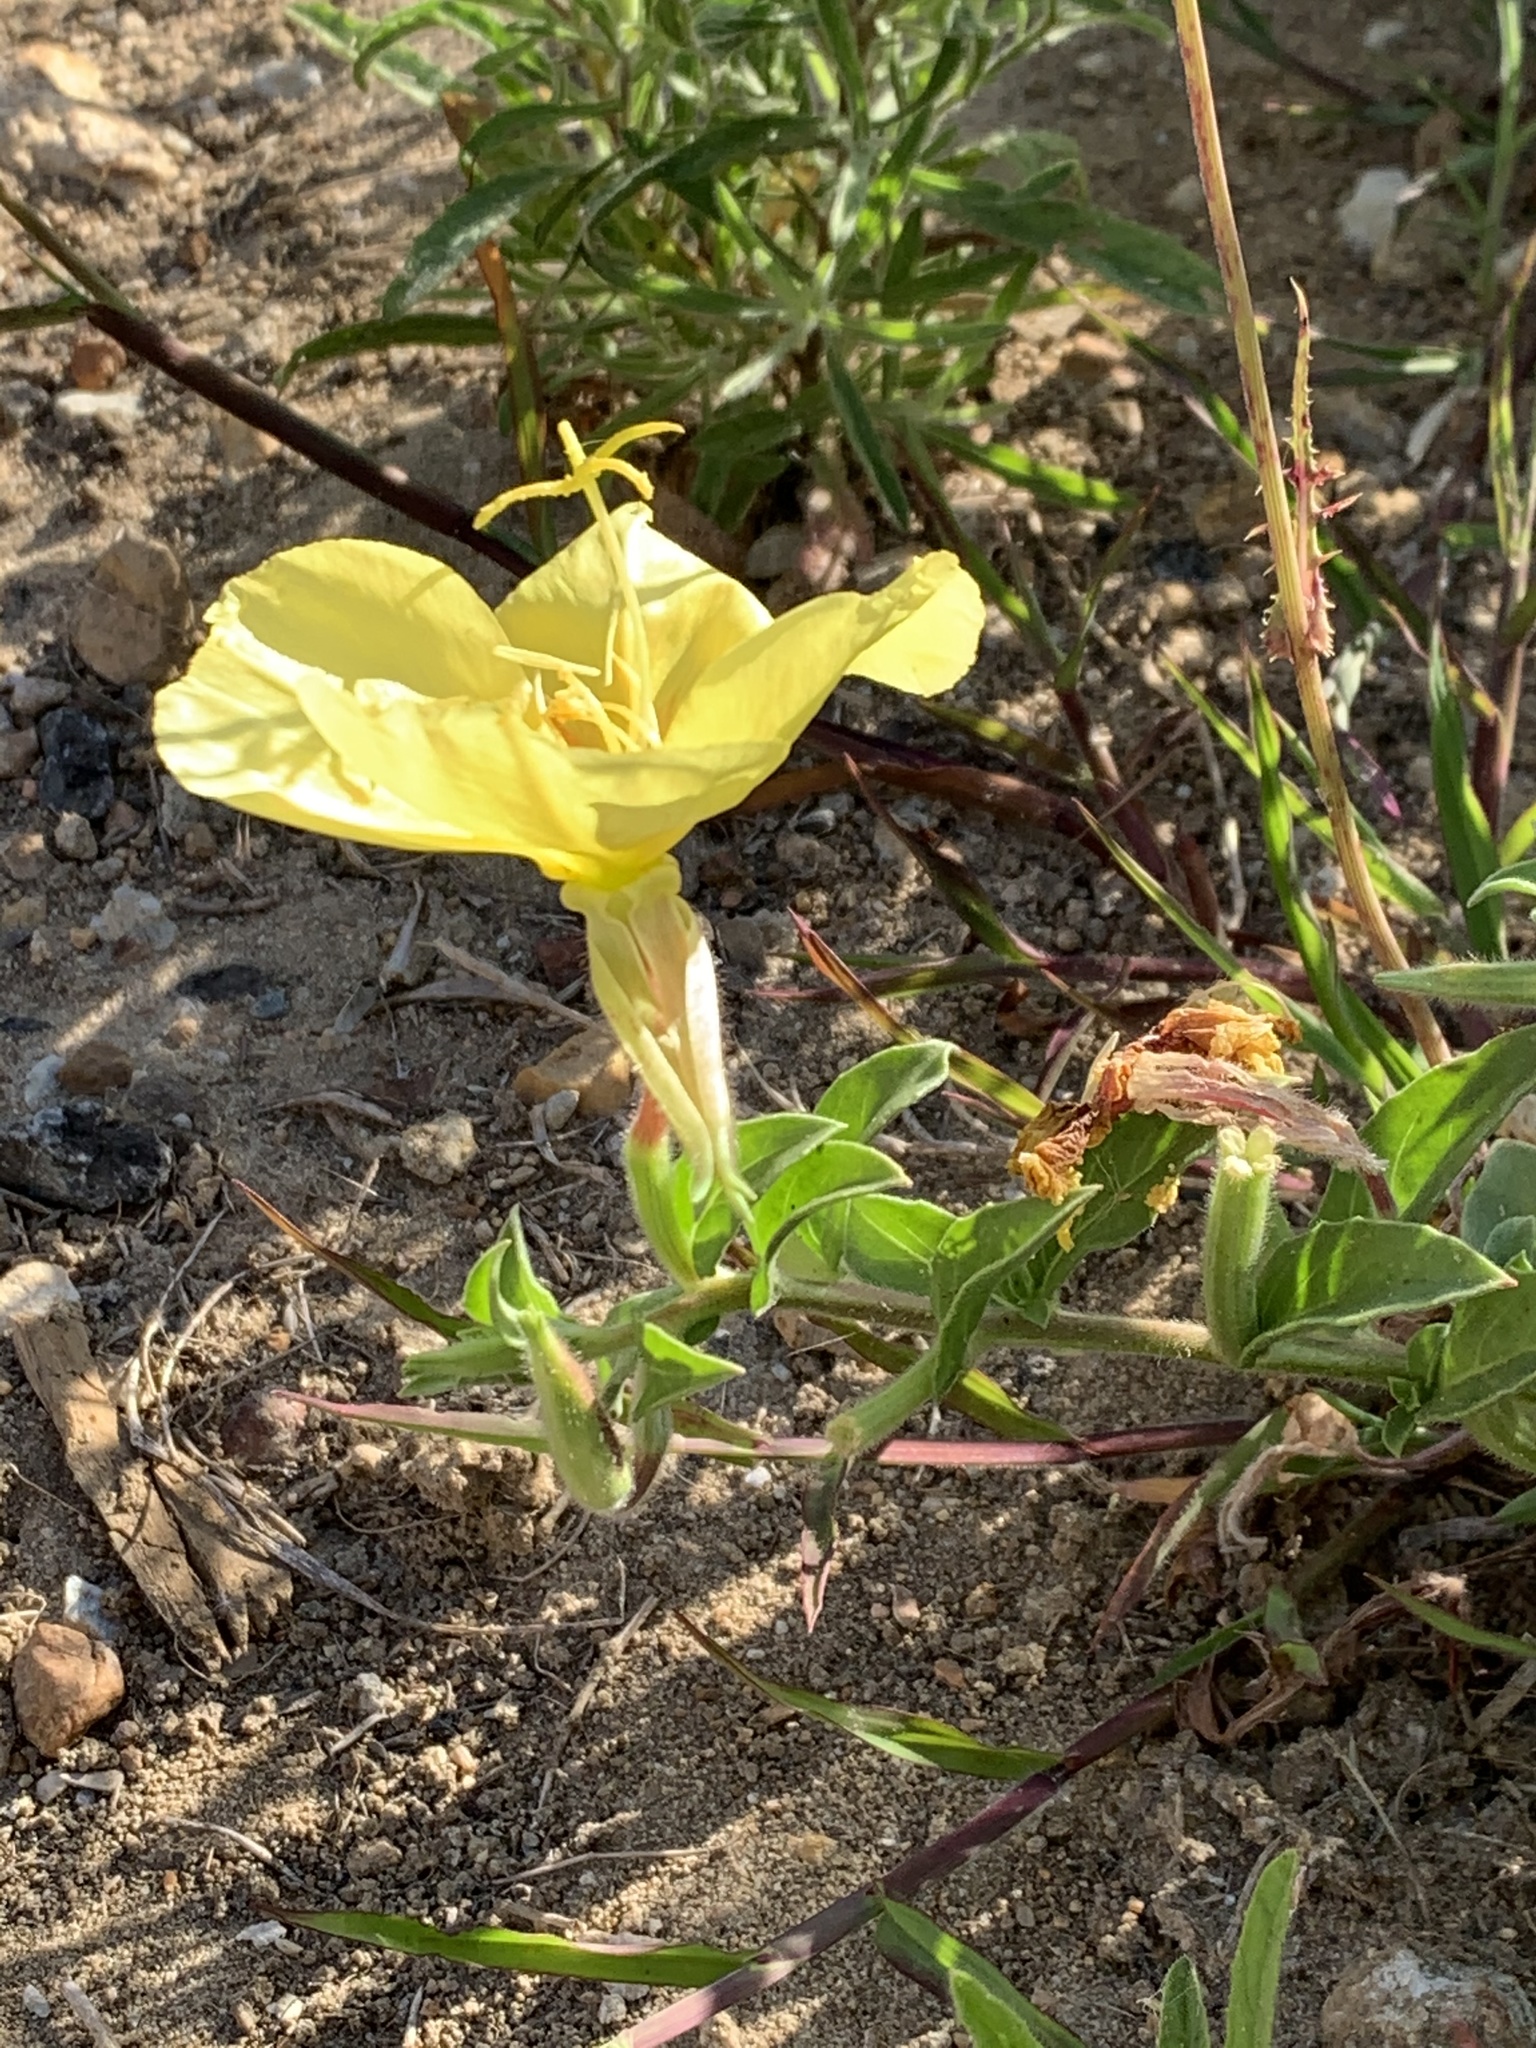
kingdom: Plantae
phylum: Tracheophyta
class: Magnoliopsida
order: Myrtales
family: Onagraceae
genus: Oenothera
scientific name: Oenothera drummondii
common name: Beach evening-primrose
